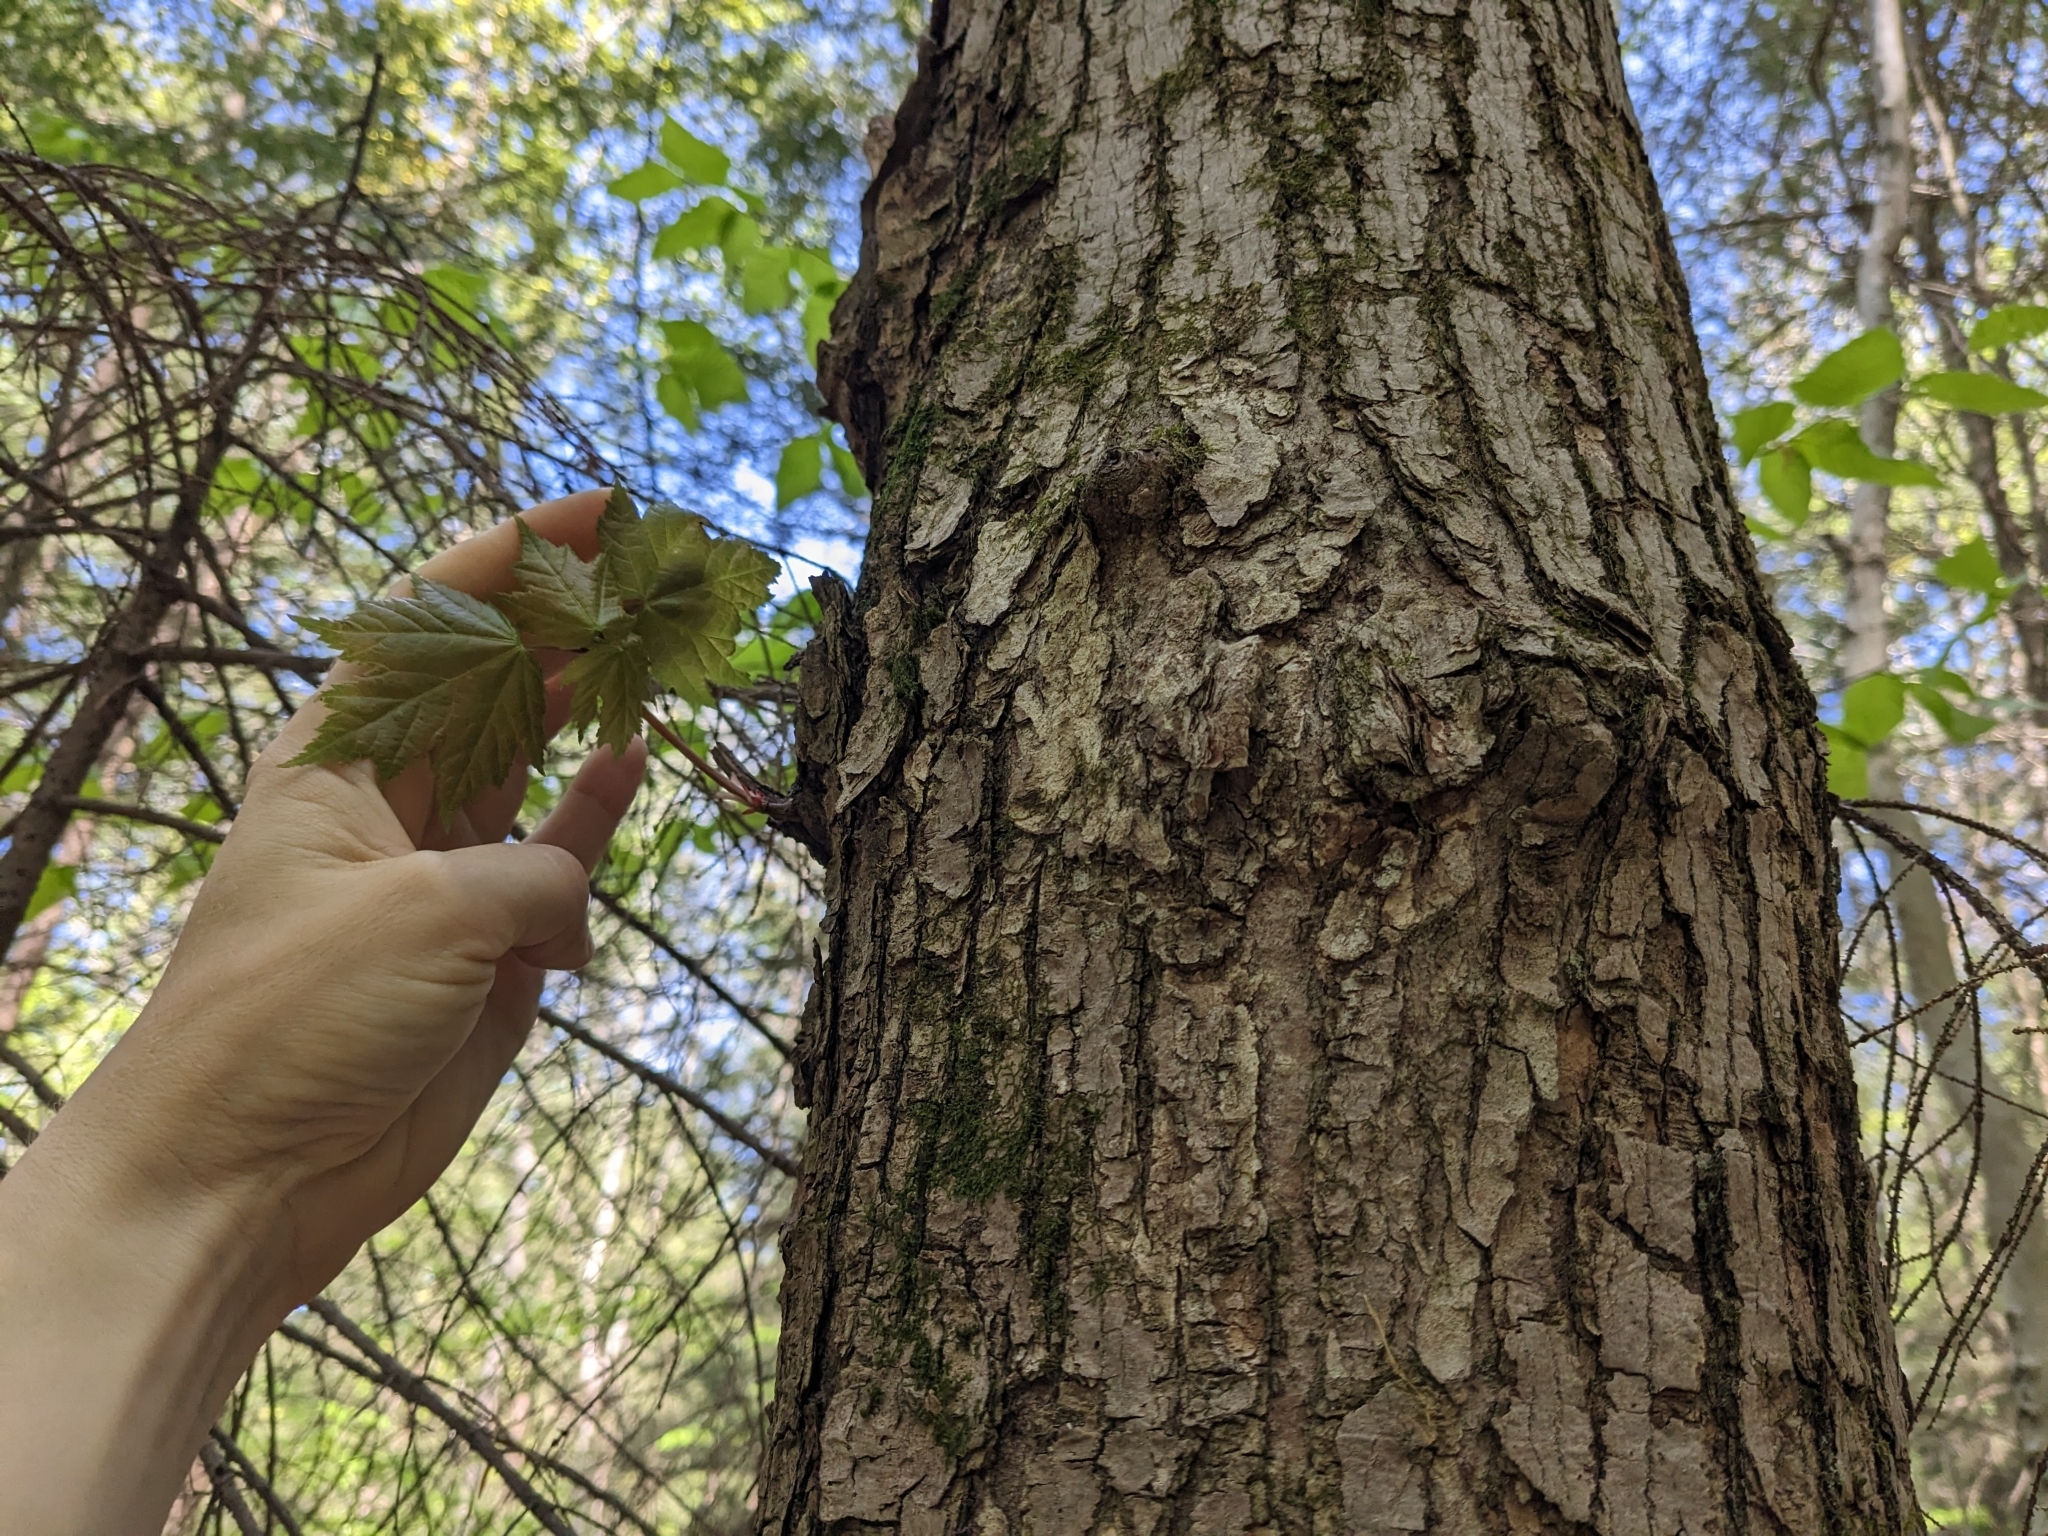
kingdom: Plantae
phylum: Tracheophyta
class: Magnoliopsida
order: Sapindales
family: Sapindaceae
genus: Acer
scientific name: Acer rubrum
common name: Red maple
